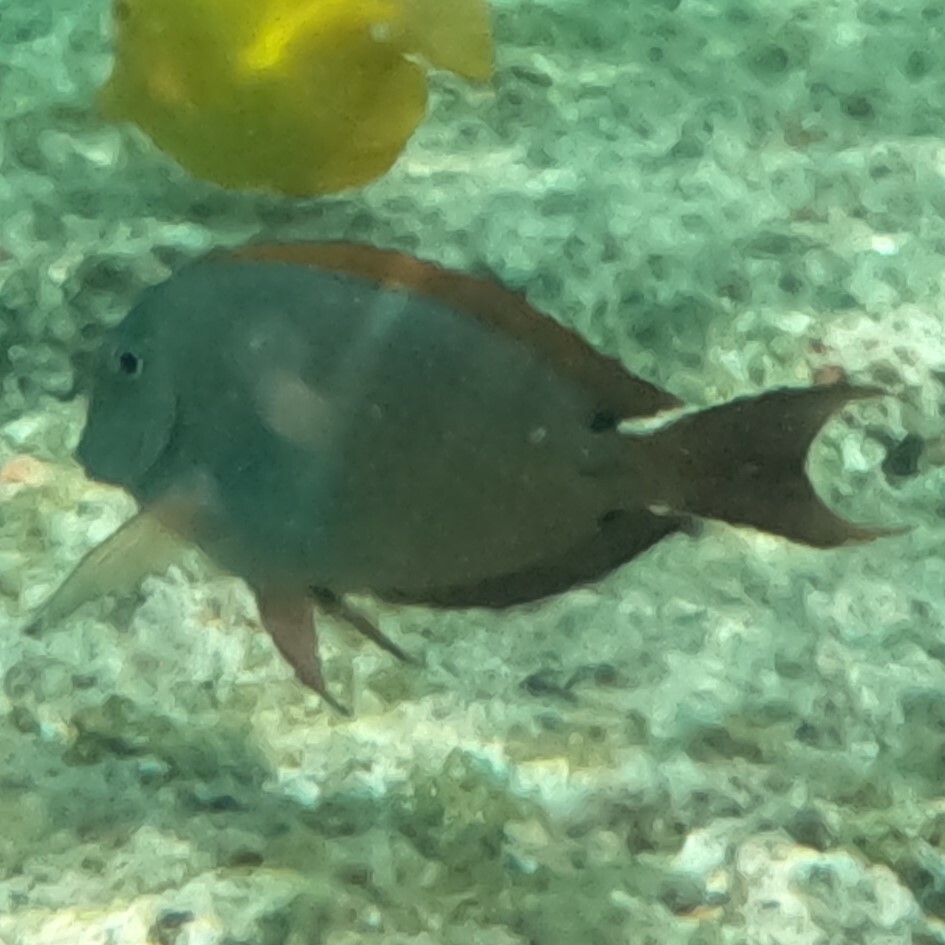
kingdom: Animalia
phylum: Chordata
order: Perciformes
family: Acanthuridae
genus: Acanthurus
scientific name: Acanthurus nigrofuscus
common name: Blackspot surgeonfish
